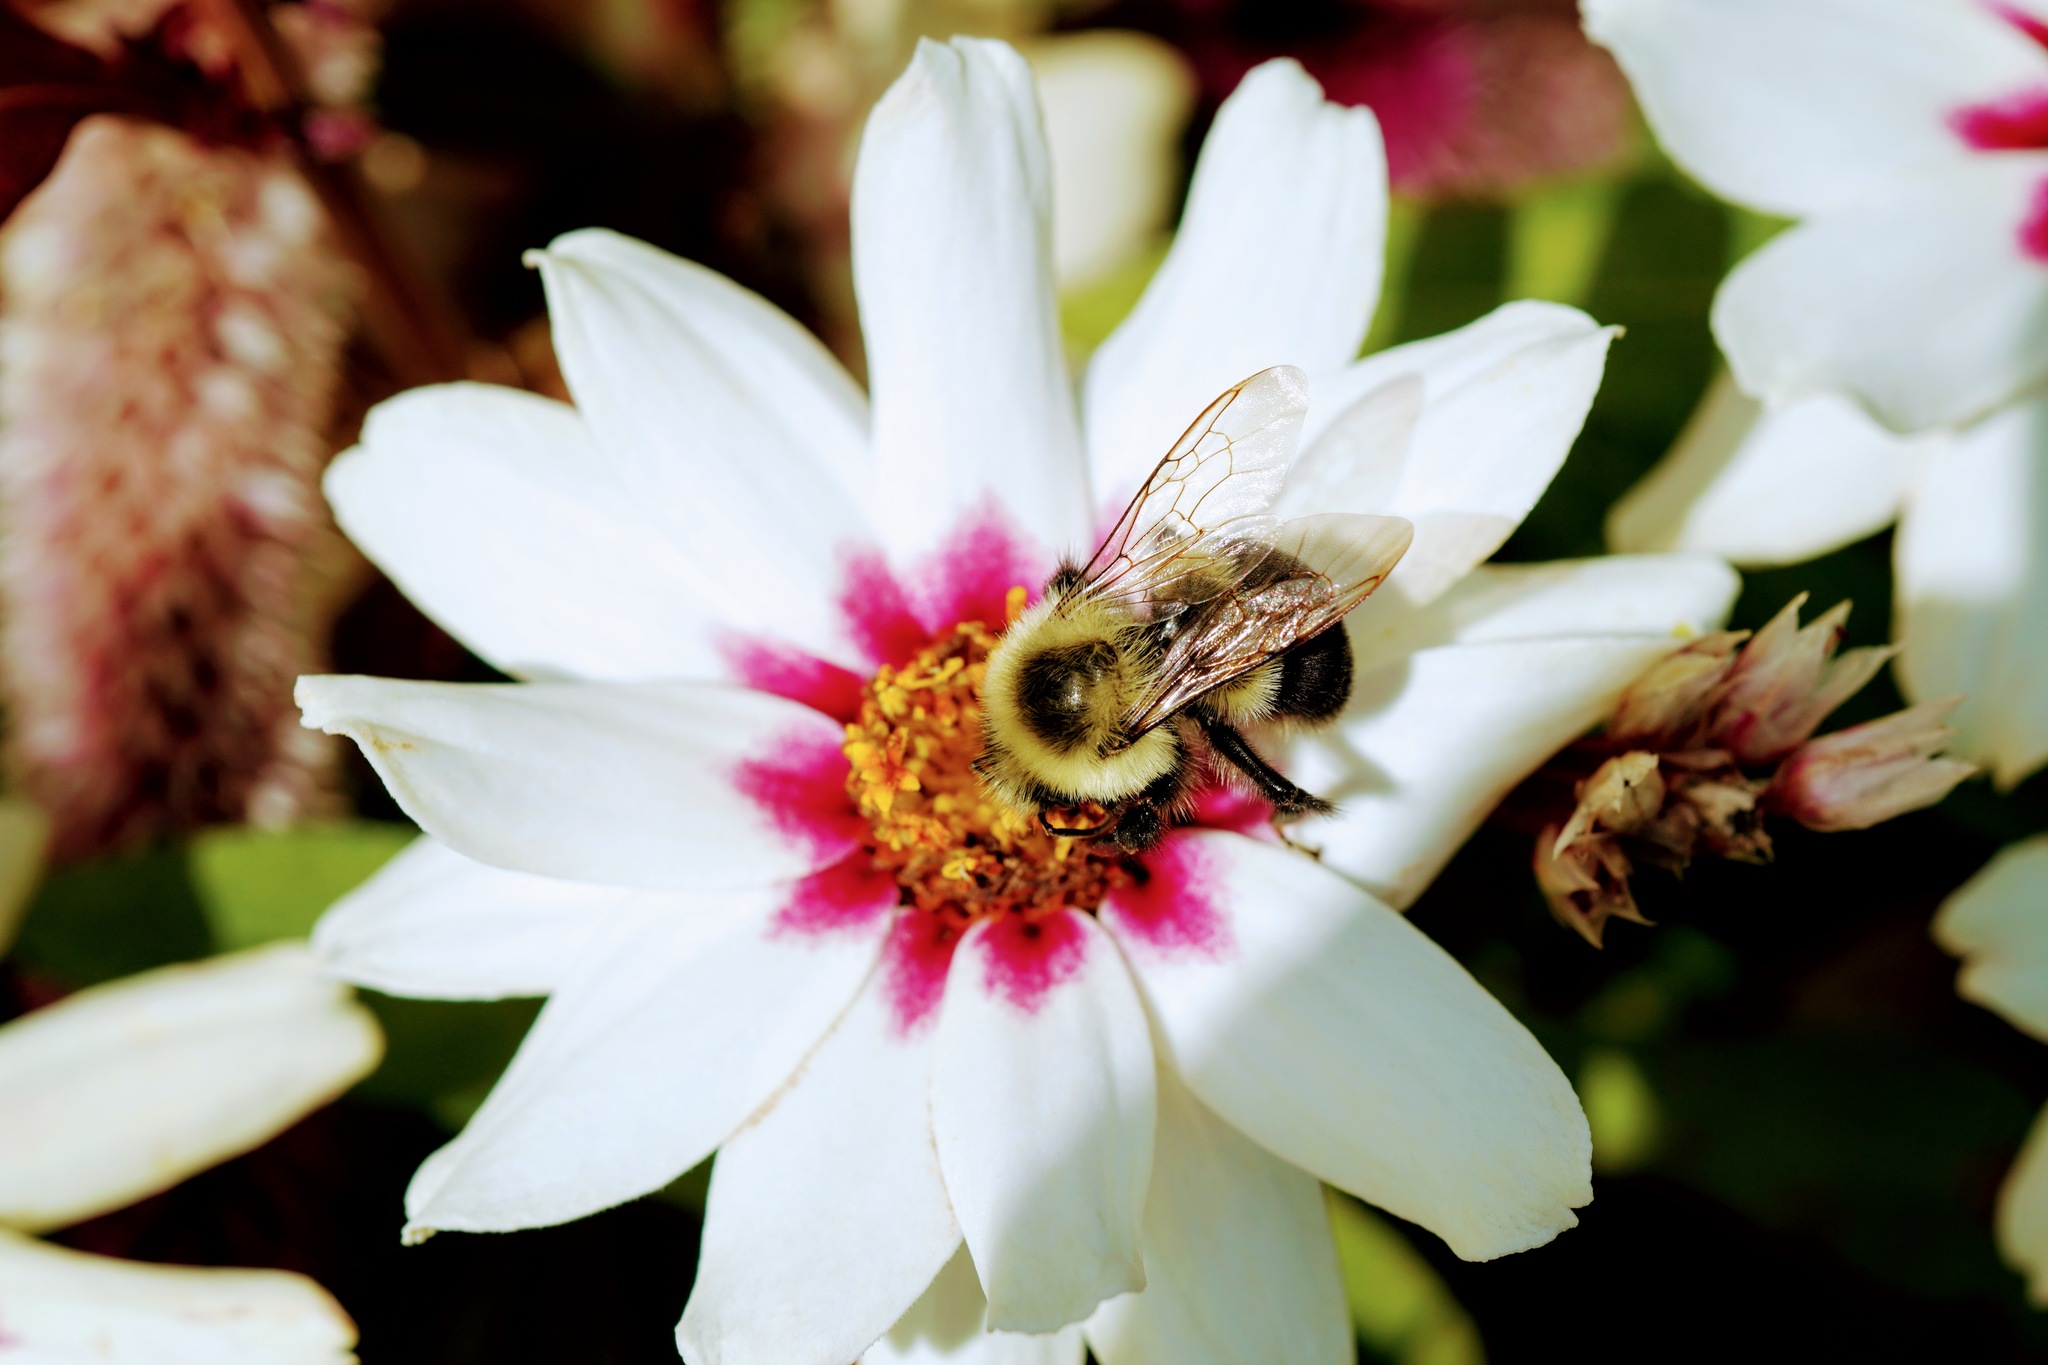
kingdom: Animalia
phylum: Arthropoda
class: Insecta
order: Hymenoptera
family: Apidae
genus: Bombus
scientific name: Bombus impatiens
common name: Common eastern bumble bee
